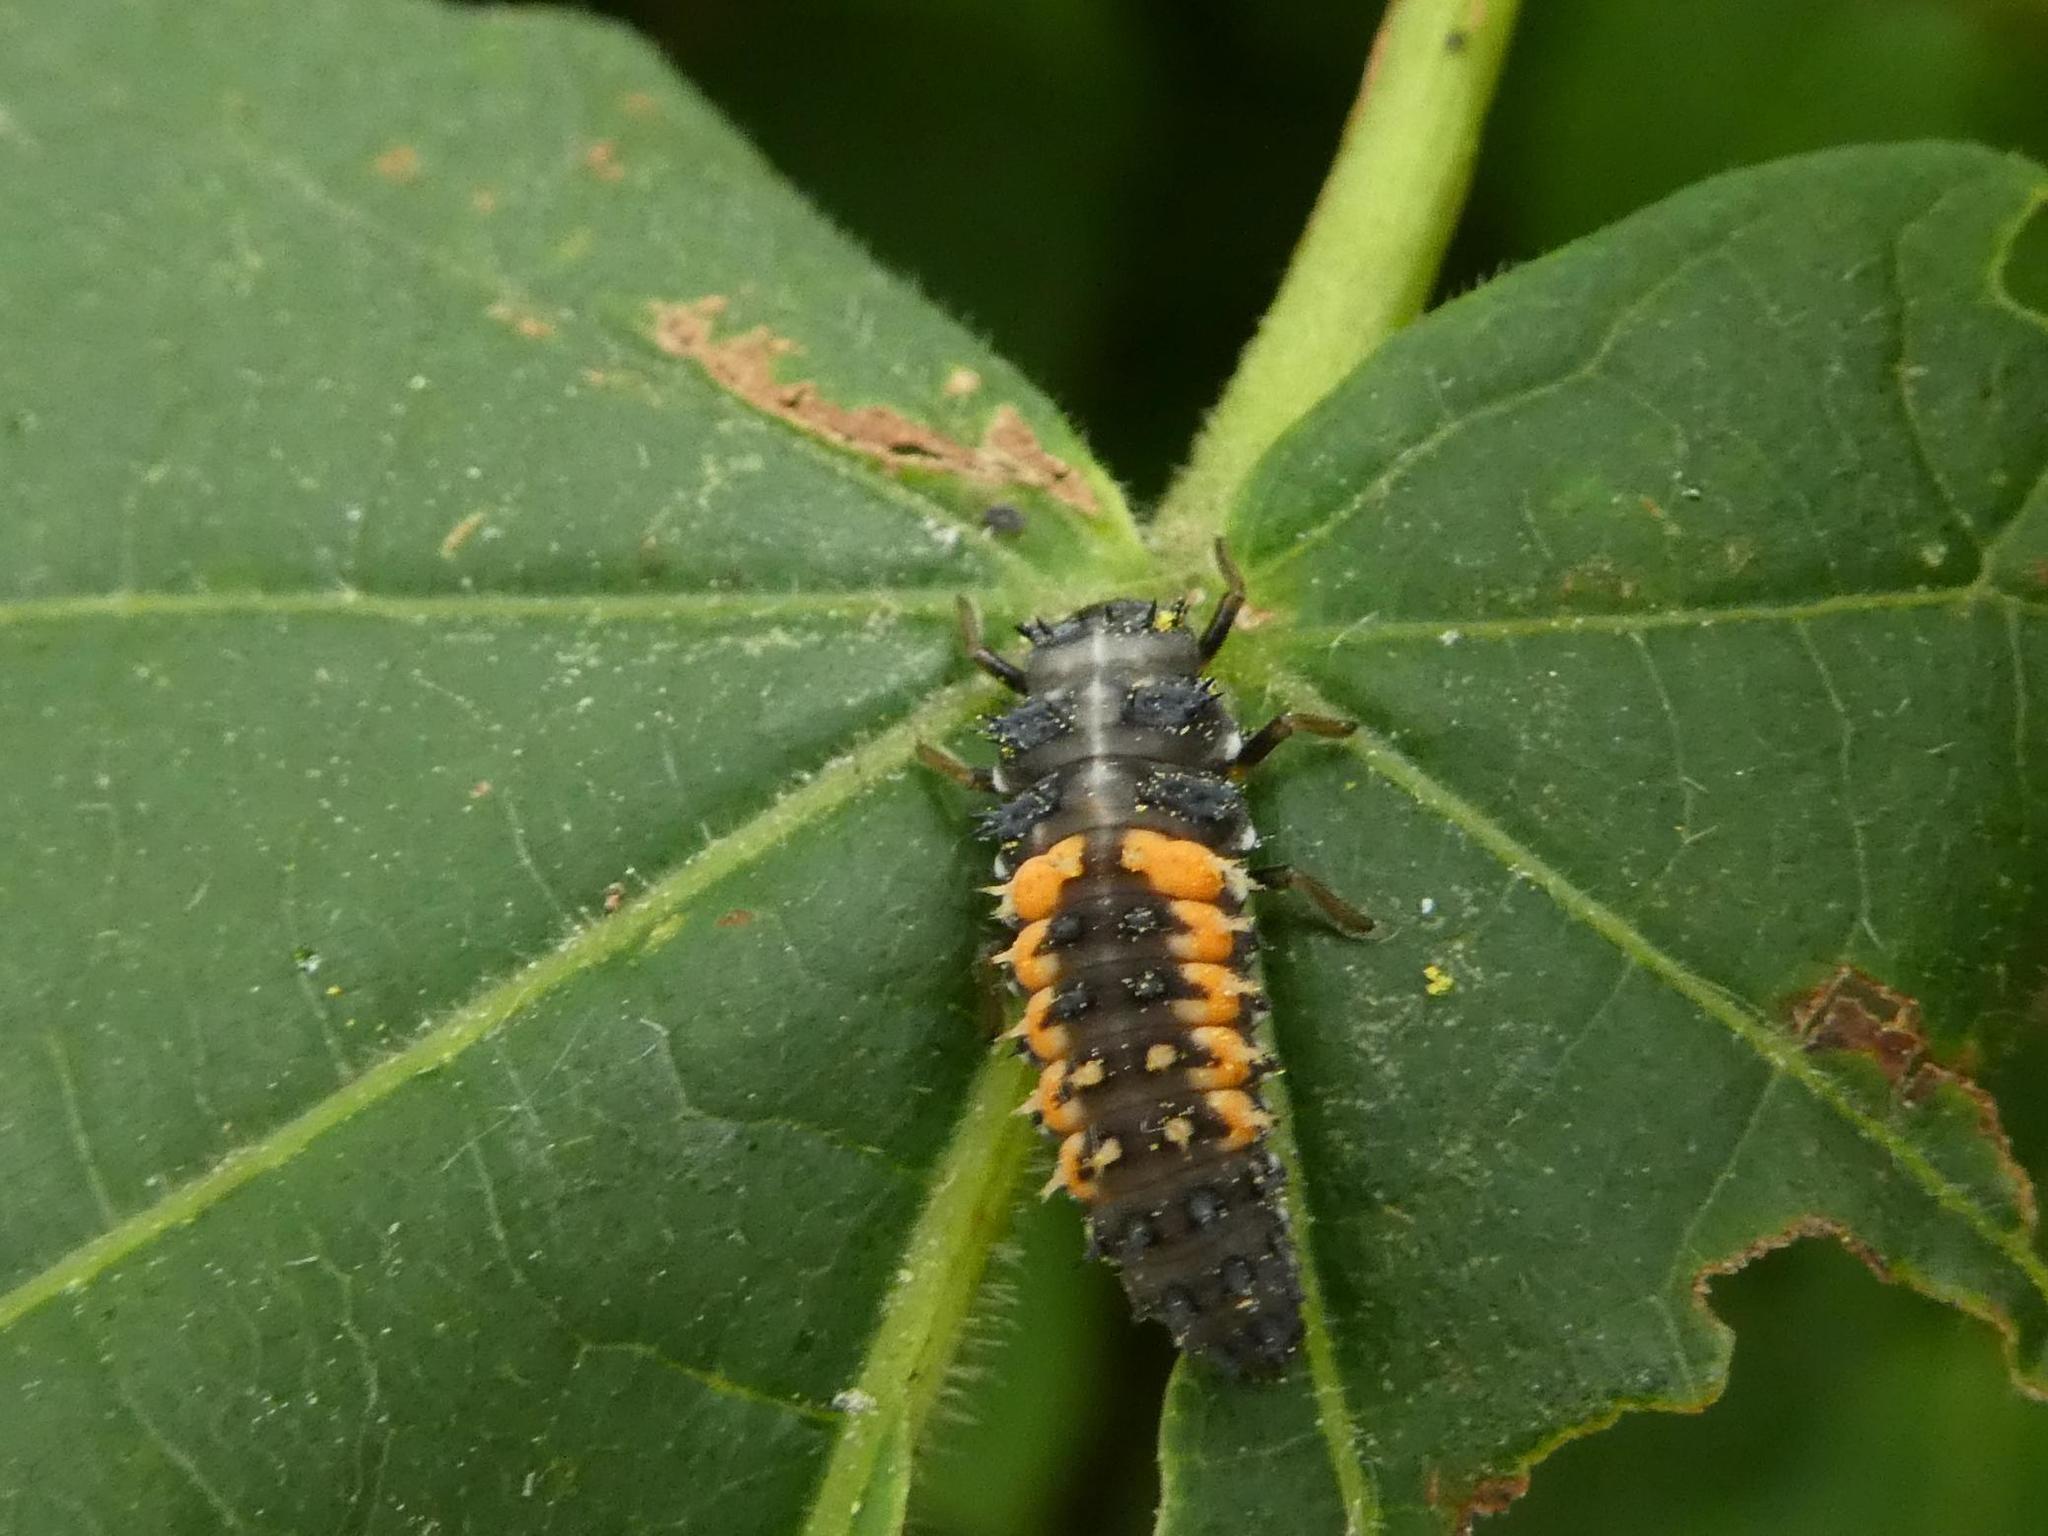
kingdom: Animalia
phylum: Arthropoda
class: Insecta
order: Coleoptera
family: Coccinellidae
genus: Harmonia
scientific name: Harmonia axyridis
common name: Harlequin ladybird
